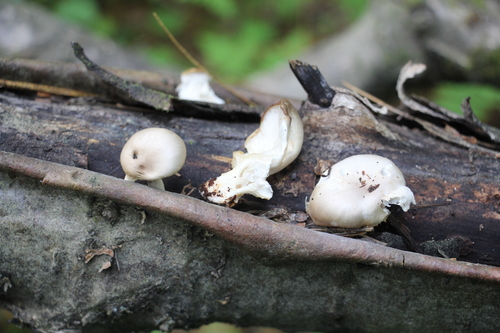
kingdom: Fungi
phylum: Basidiomycota
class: Agaricomycetes
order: Agaricales
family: Pleurotaceae
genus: Pleurotus
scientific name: Pleurotus pulmonarius
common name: Pale oyster
